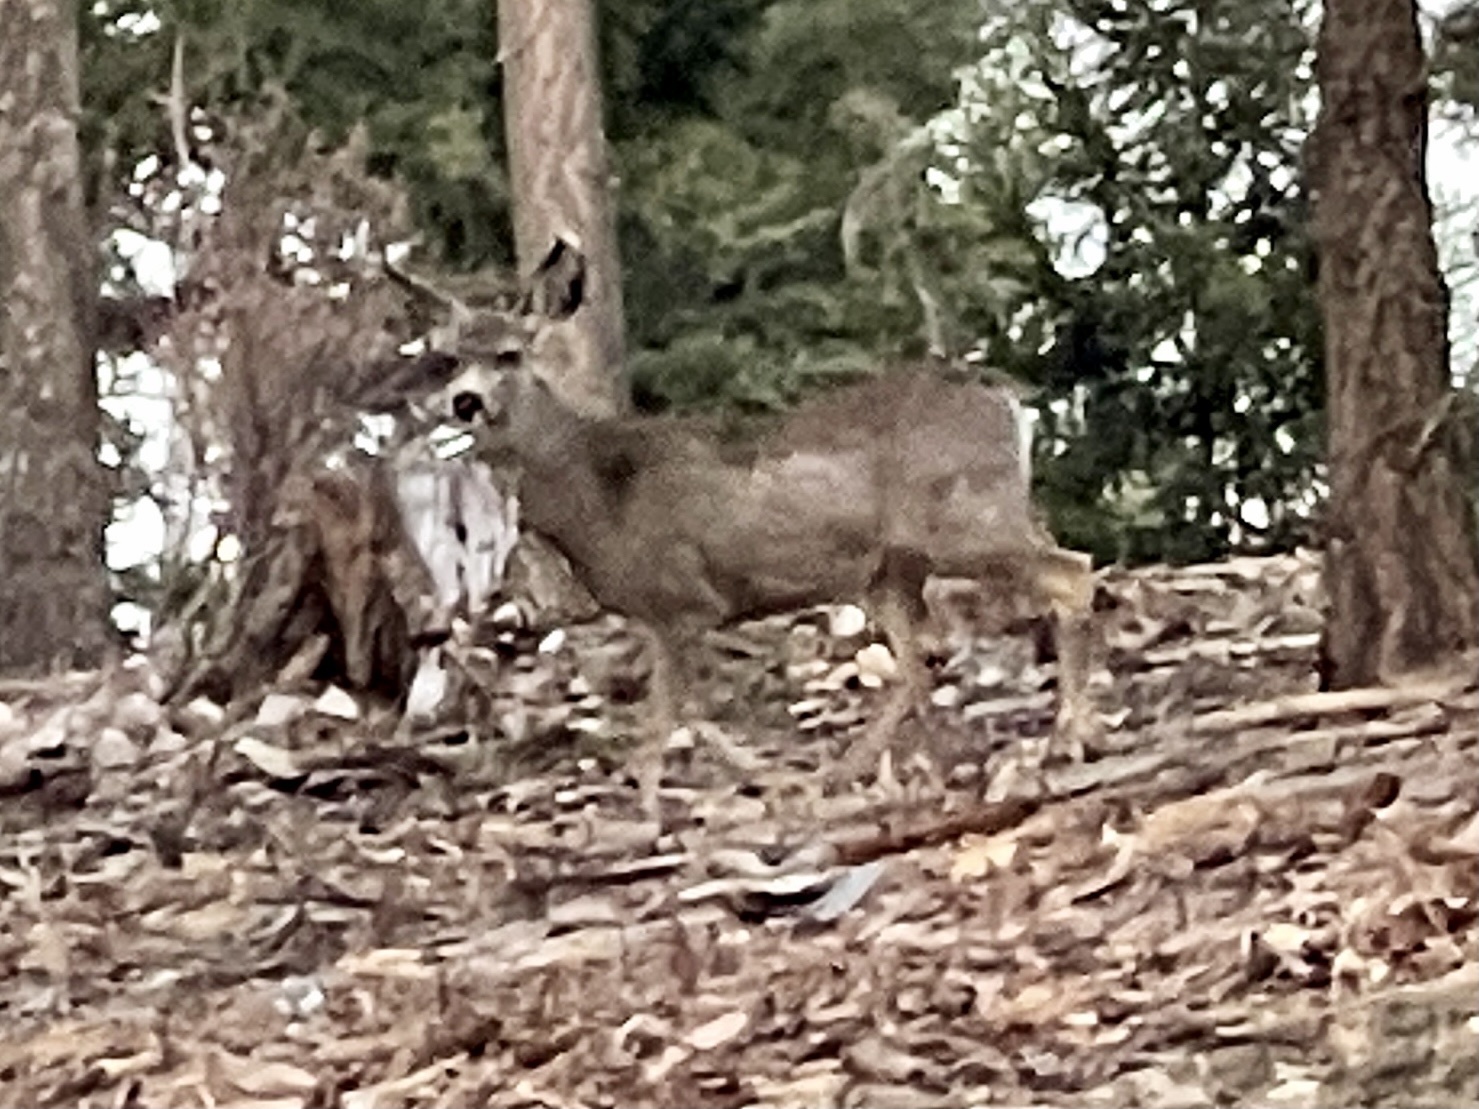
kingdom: Animalia
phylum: Chordata
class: Mammalia
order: Artiodactyla
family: Cervidae
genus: Odocoileus
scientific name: Odocoileus hemionus
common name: Mule deer
